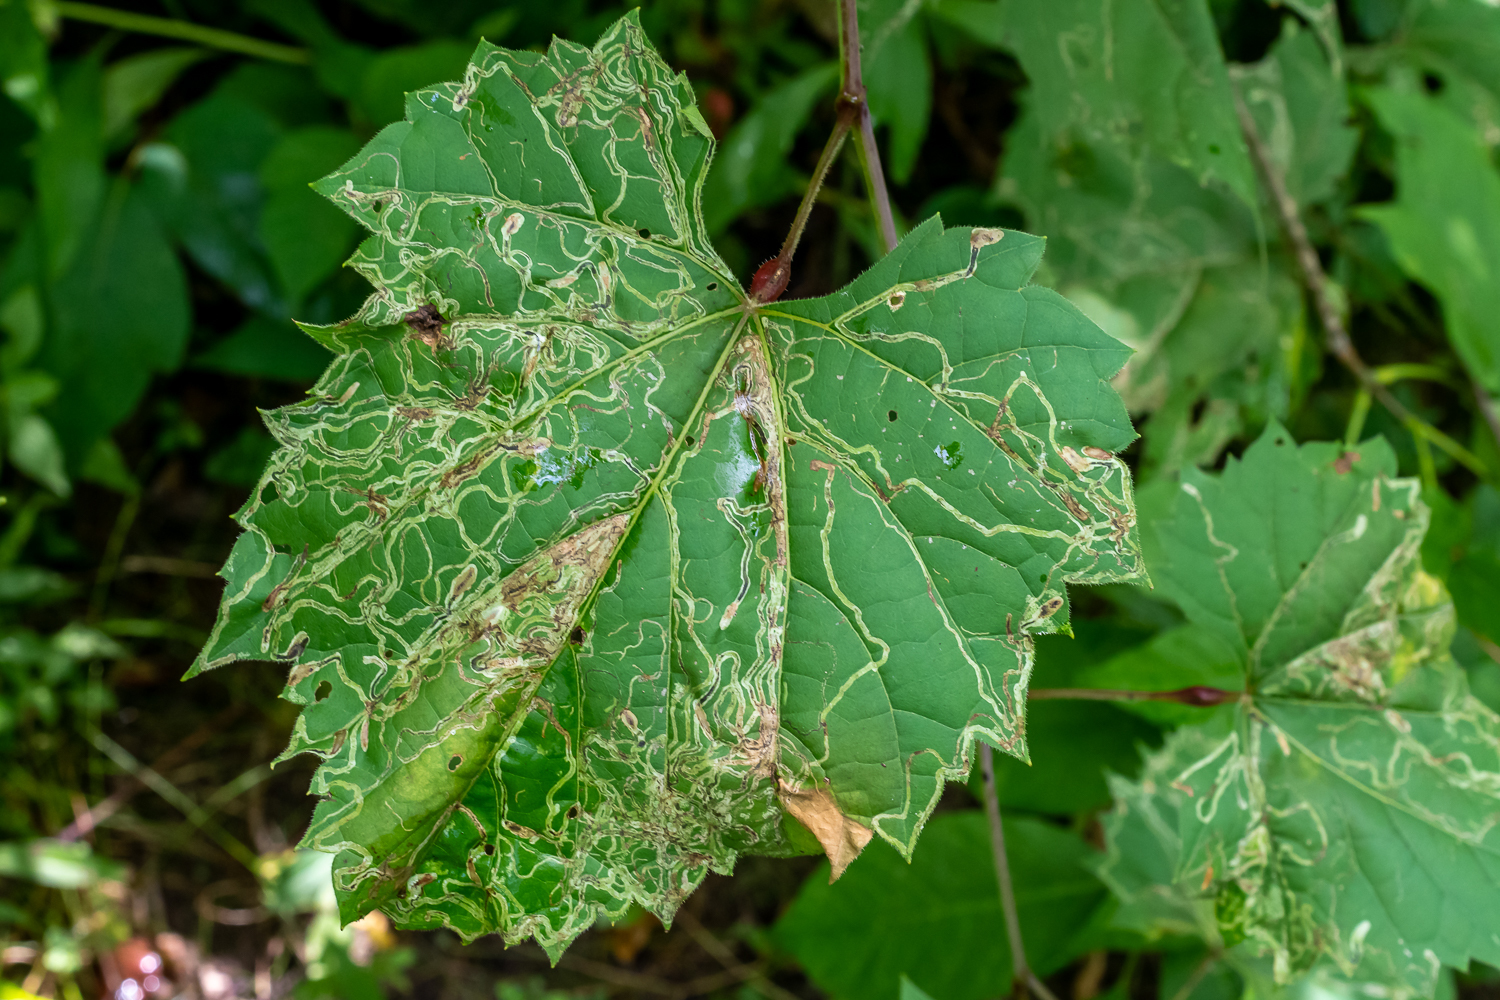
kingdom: Animalia
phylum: Arthropoda
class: Insecta
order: Lepidoptera
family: Gracillariidae
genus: Phyllocnistis
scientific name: Phyllocnistis vitifoliella
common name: Grape leaf-miner moth
